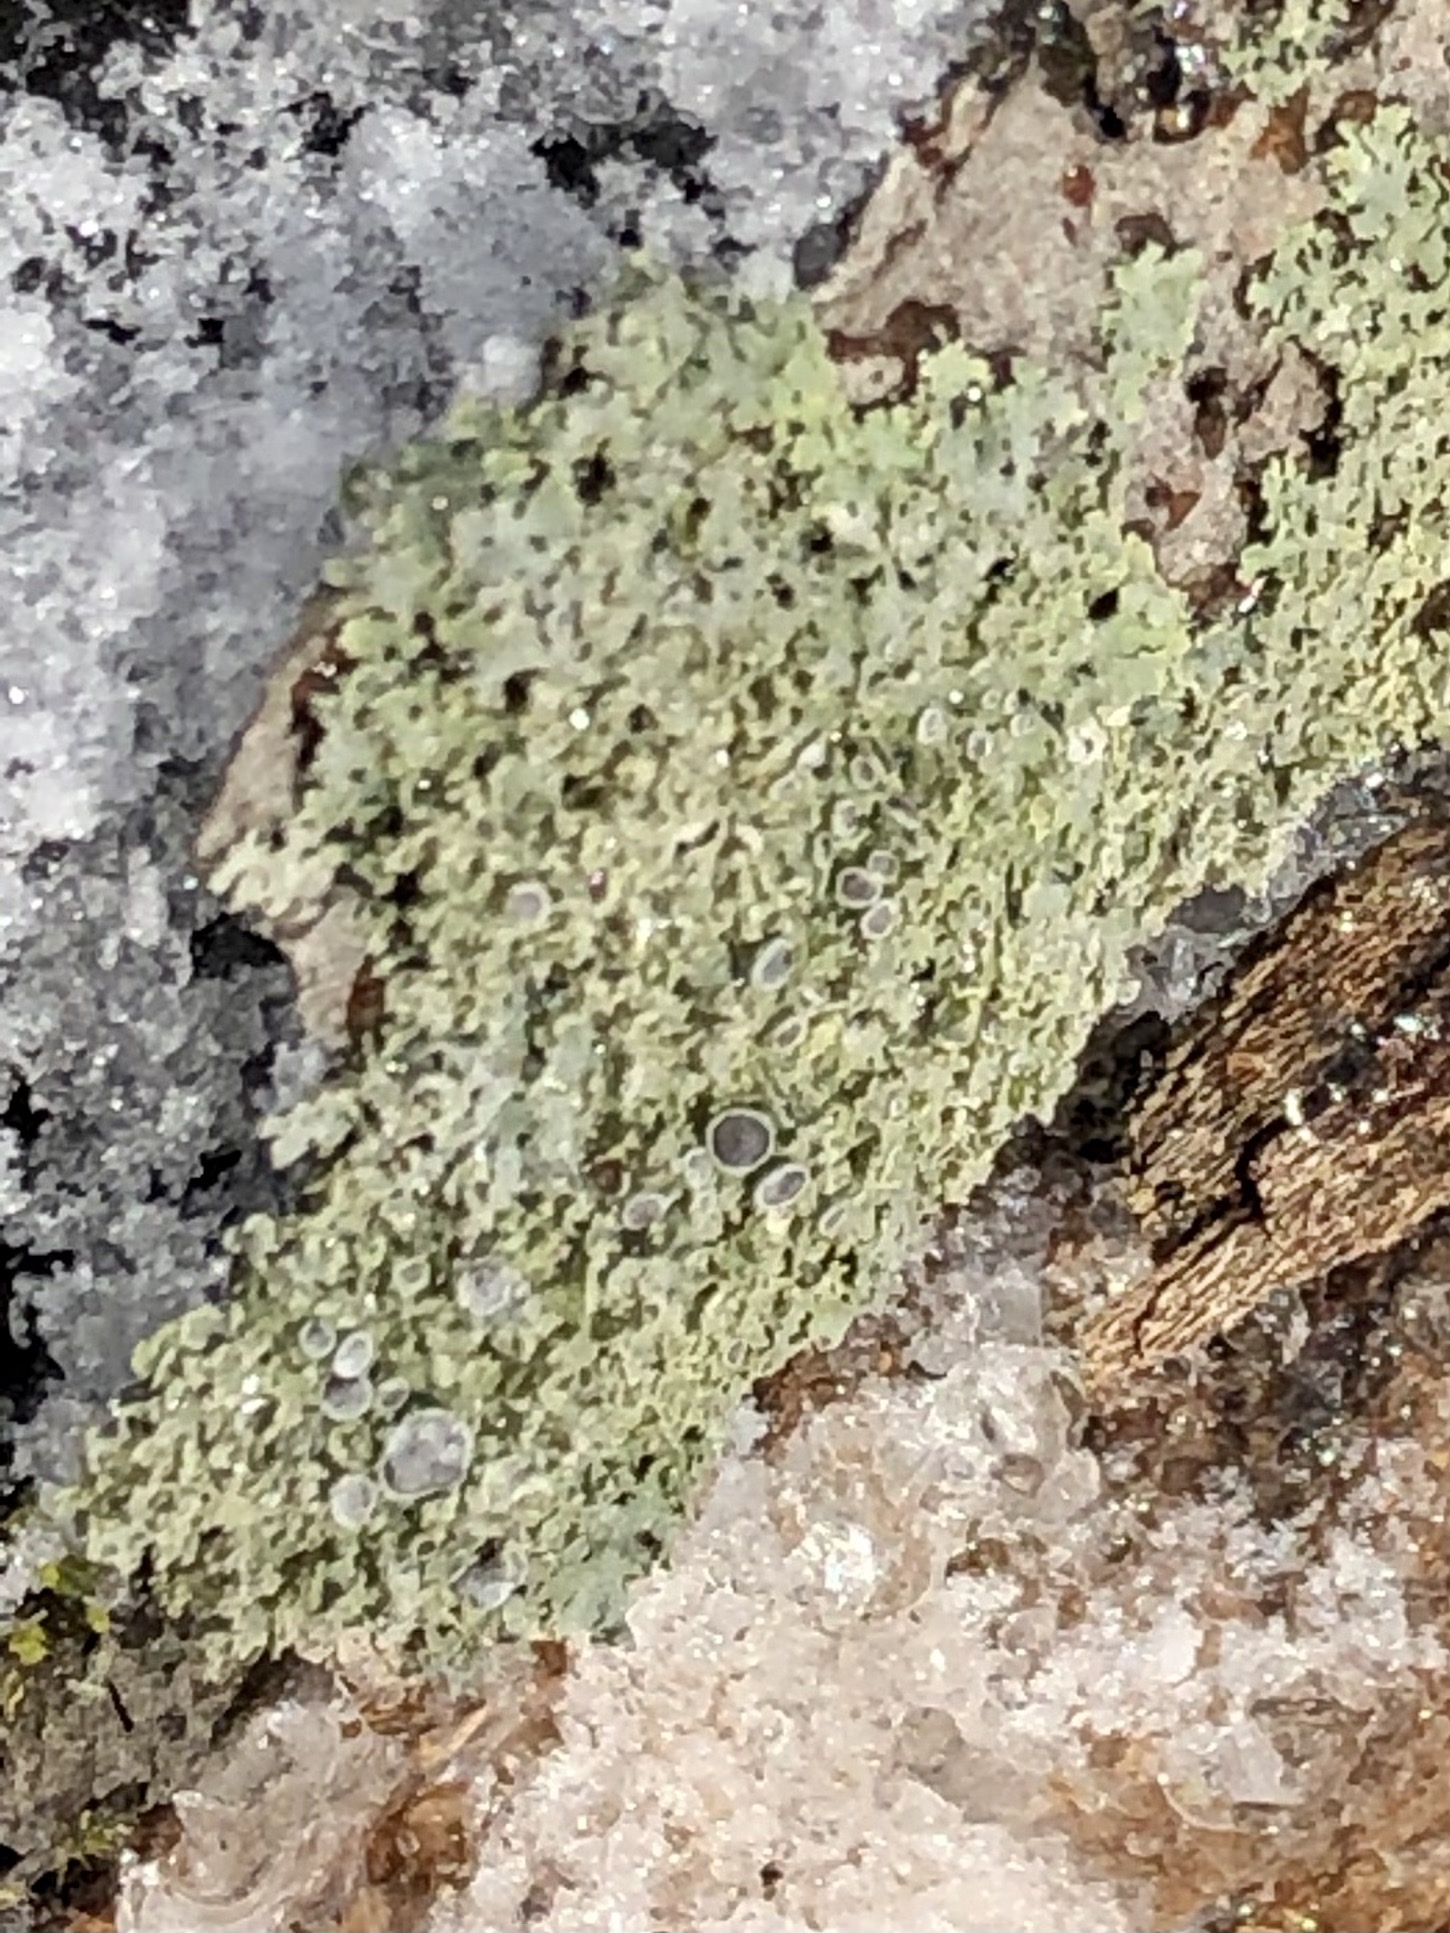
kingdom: Fungi
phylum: Ascomycota
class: Lecanoromycetes
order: Caliciales
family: Physciaceae
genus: Physcia
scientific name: Physcia millegrana
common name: Rosette lichen
